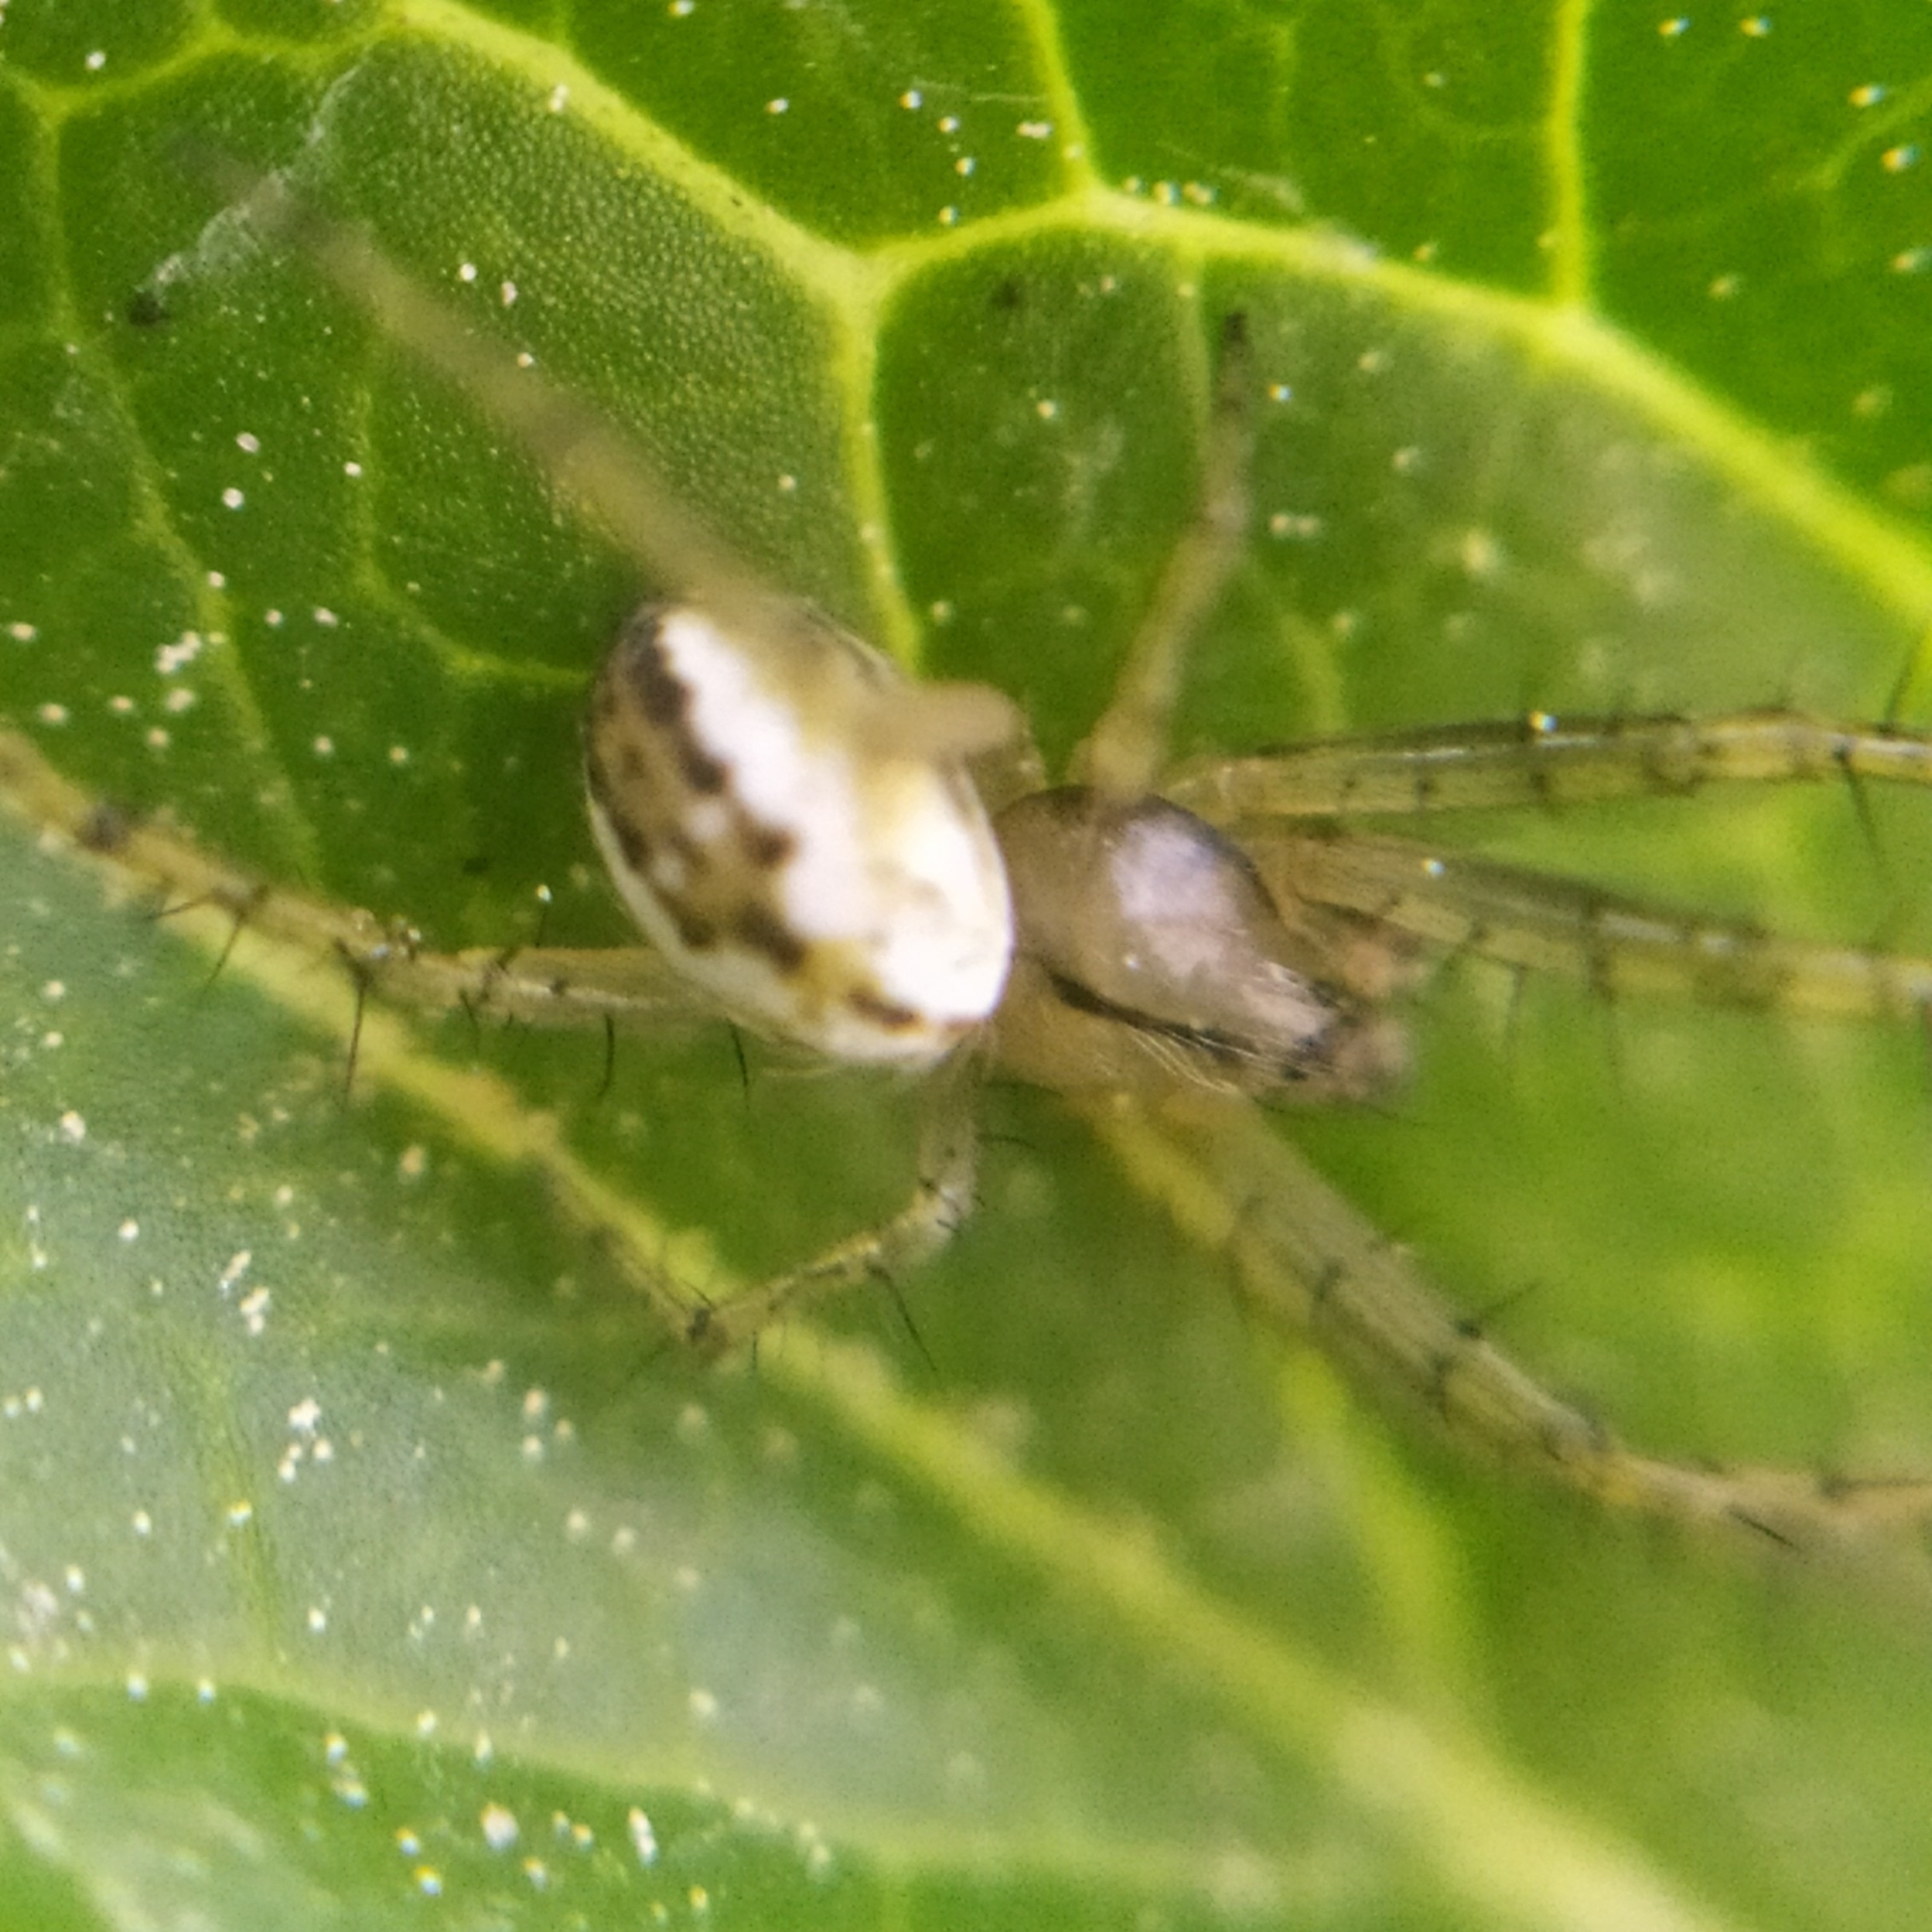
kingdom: Animalia
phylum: Arthropoda
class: Arachnida
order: Araneae
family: Araneidae
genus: Mangora
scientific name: Mangora acalypha
